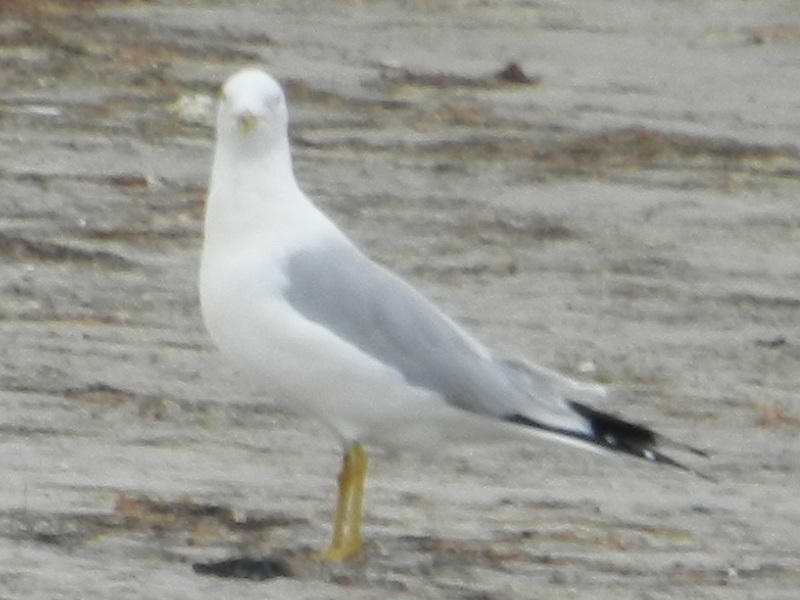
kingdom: Animalia
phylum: Chordata
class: Aves
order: Charadriiformes
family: Laridae
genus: Larus
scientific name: Larus delawarensis
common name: Ring-billed gull
